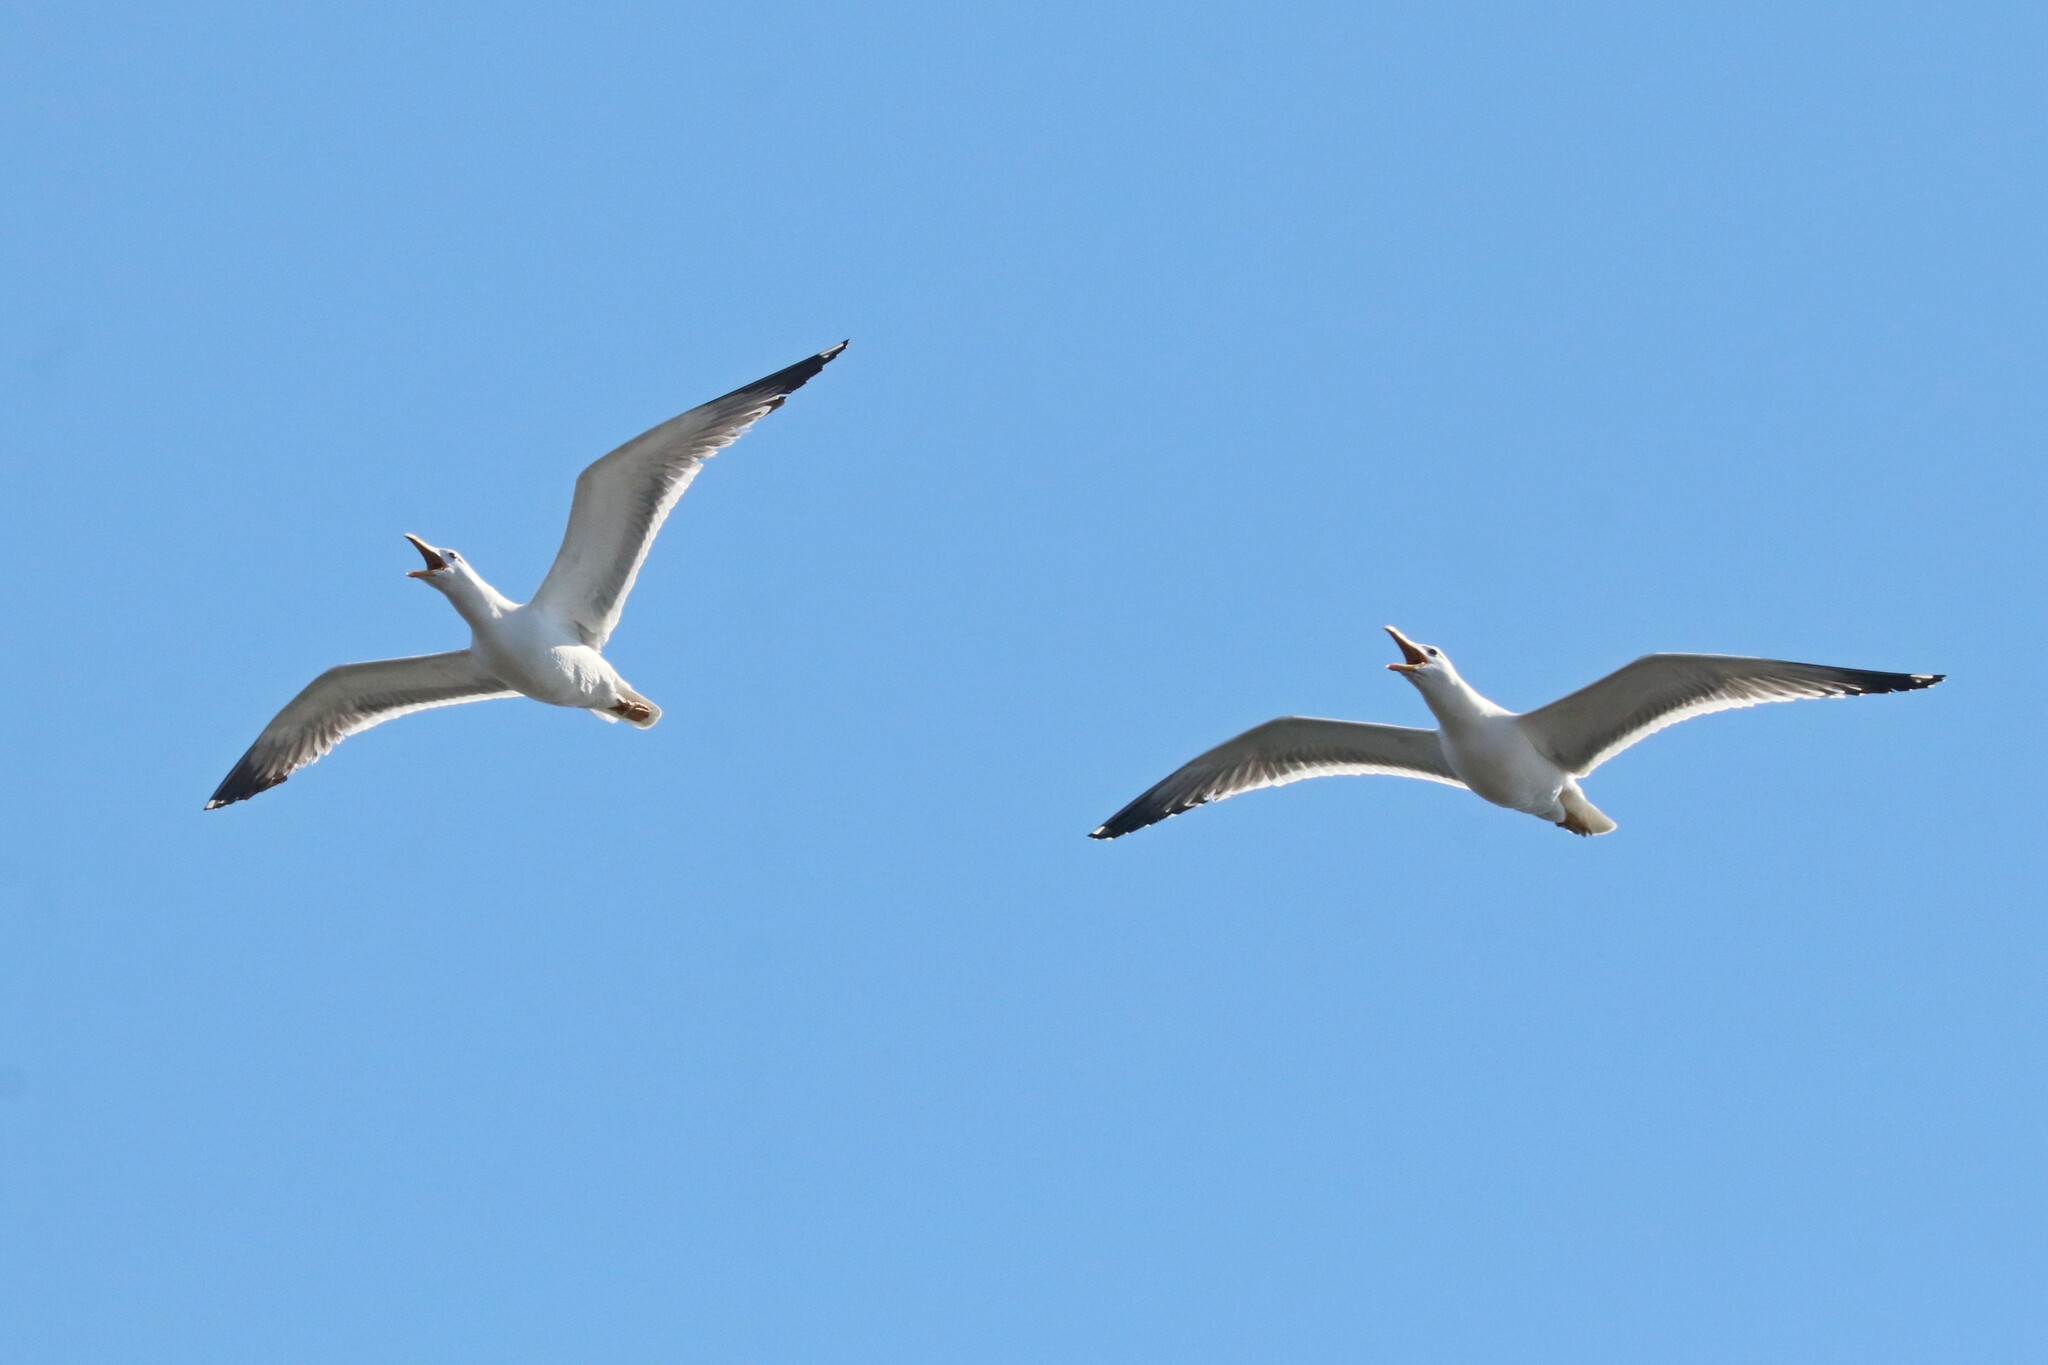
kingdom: Animalia
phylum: Chordata
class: Aves
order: Charadriiformes
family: Laridae
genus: Larus
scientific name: Larus fuscus
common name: Lesser black-backed gull
